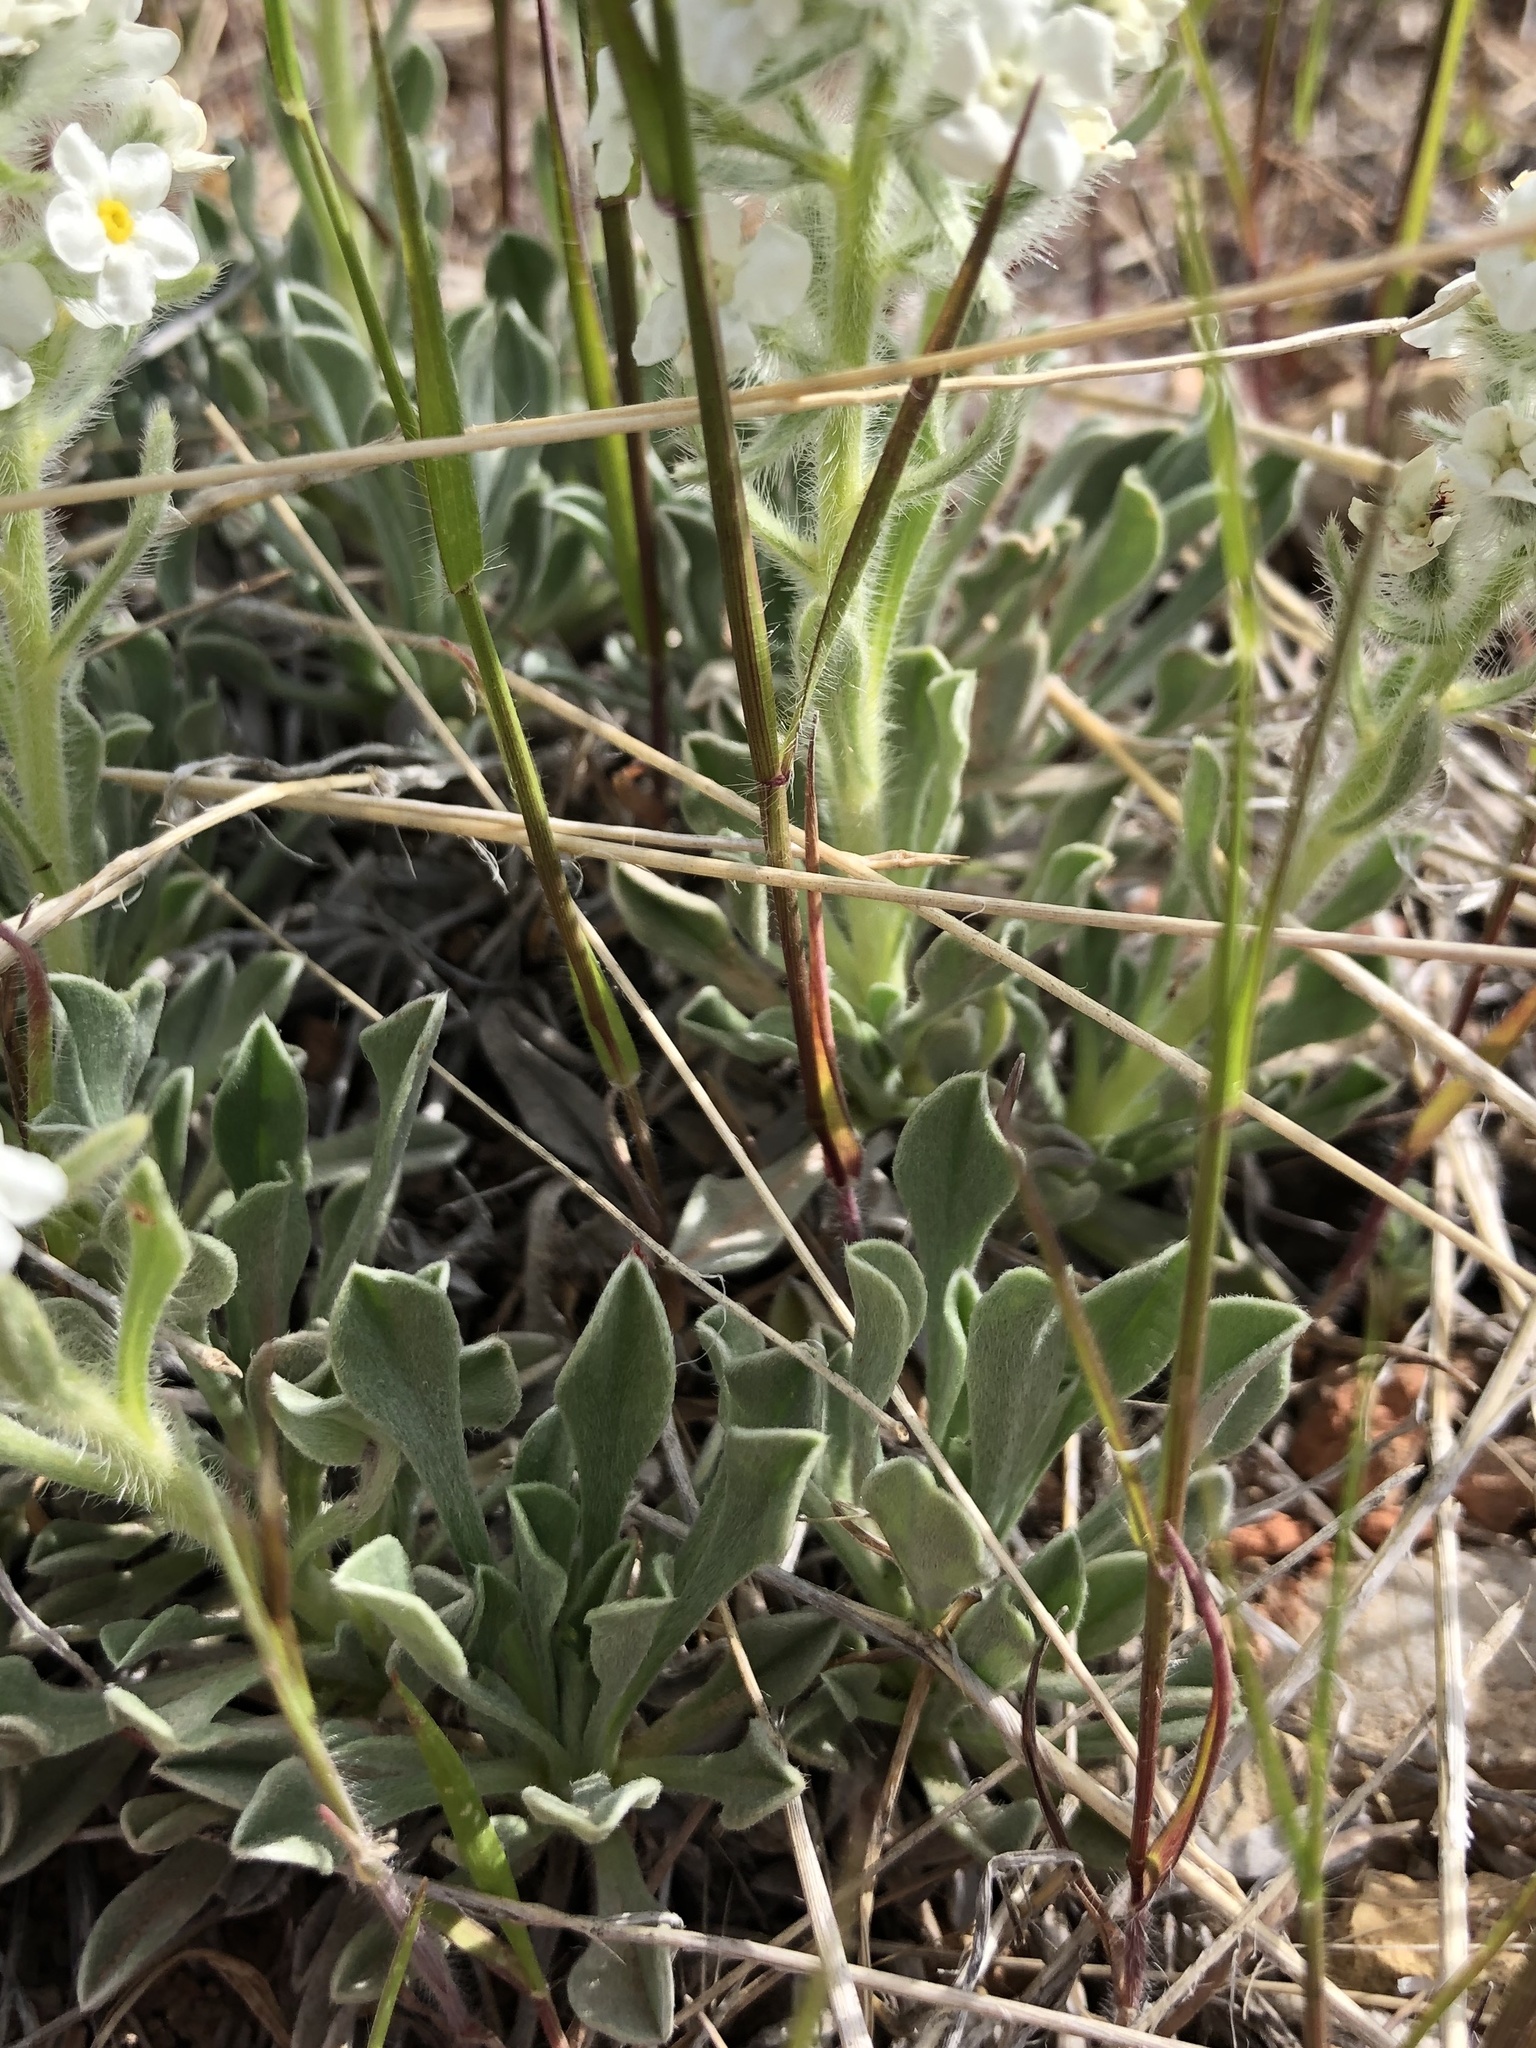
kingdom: Plantae
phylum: Tracheophyta
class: Magnoliopsida
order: Boraginales
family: Boraginaceae
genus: Oreocarya
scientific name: Oreocarya humilis
